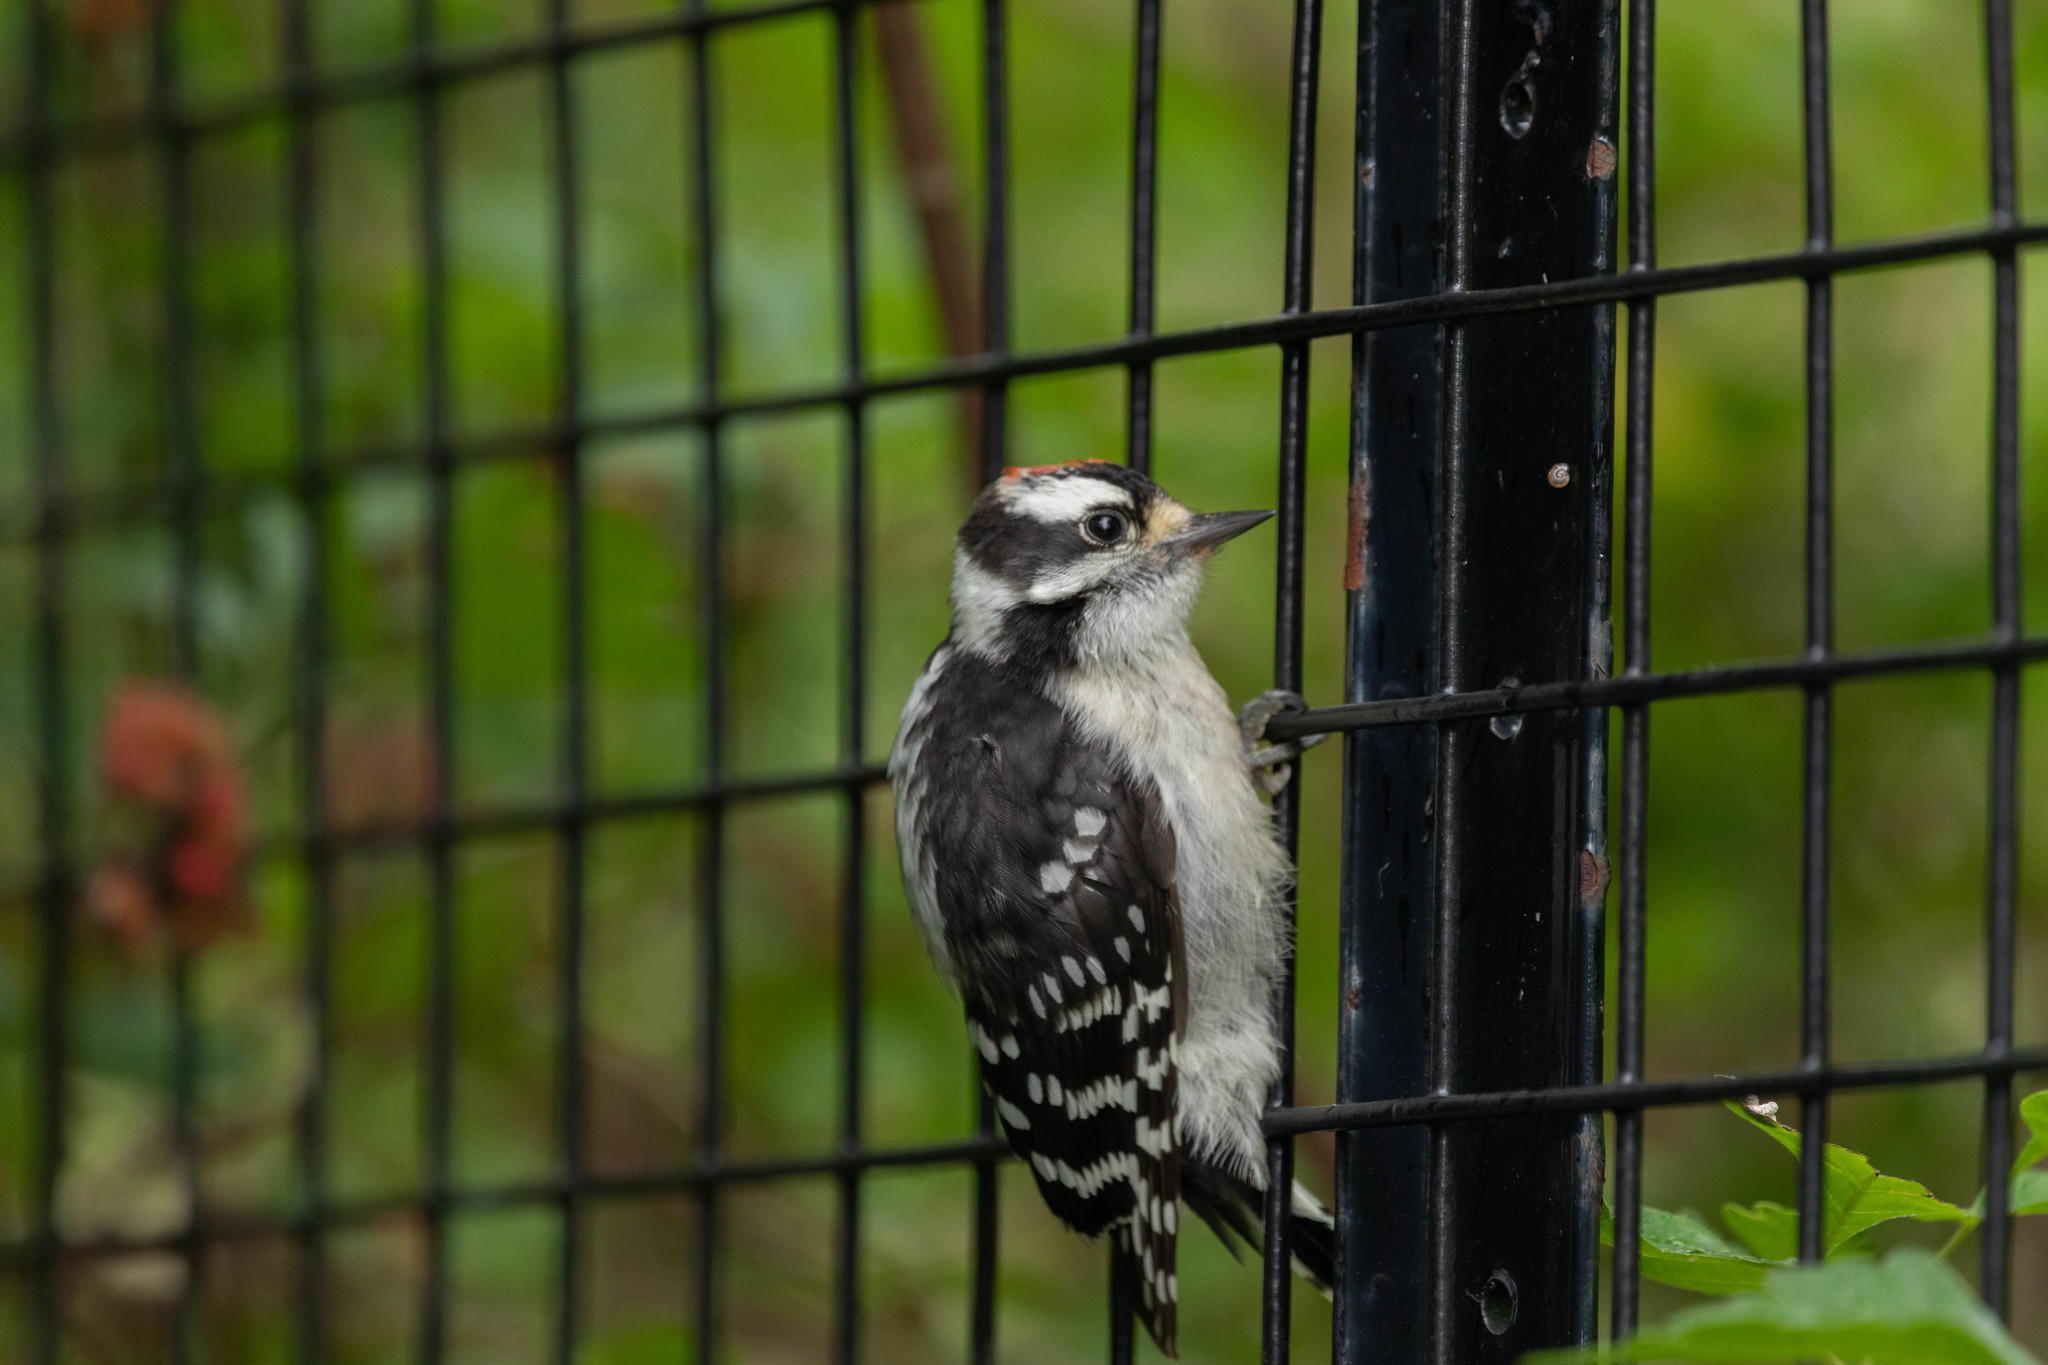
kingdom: Animalia
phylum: Chordata
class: Aves
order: Piciformes
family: Picidae
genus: Dryobates
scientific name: Dryobates pubescens
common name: Downy woodpecker
